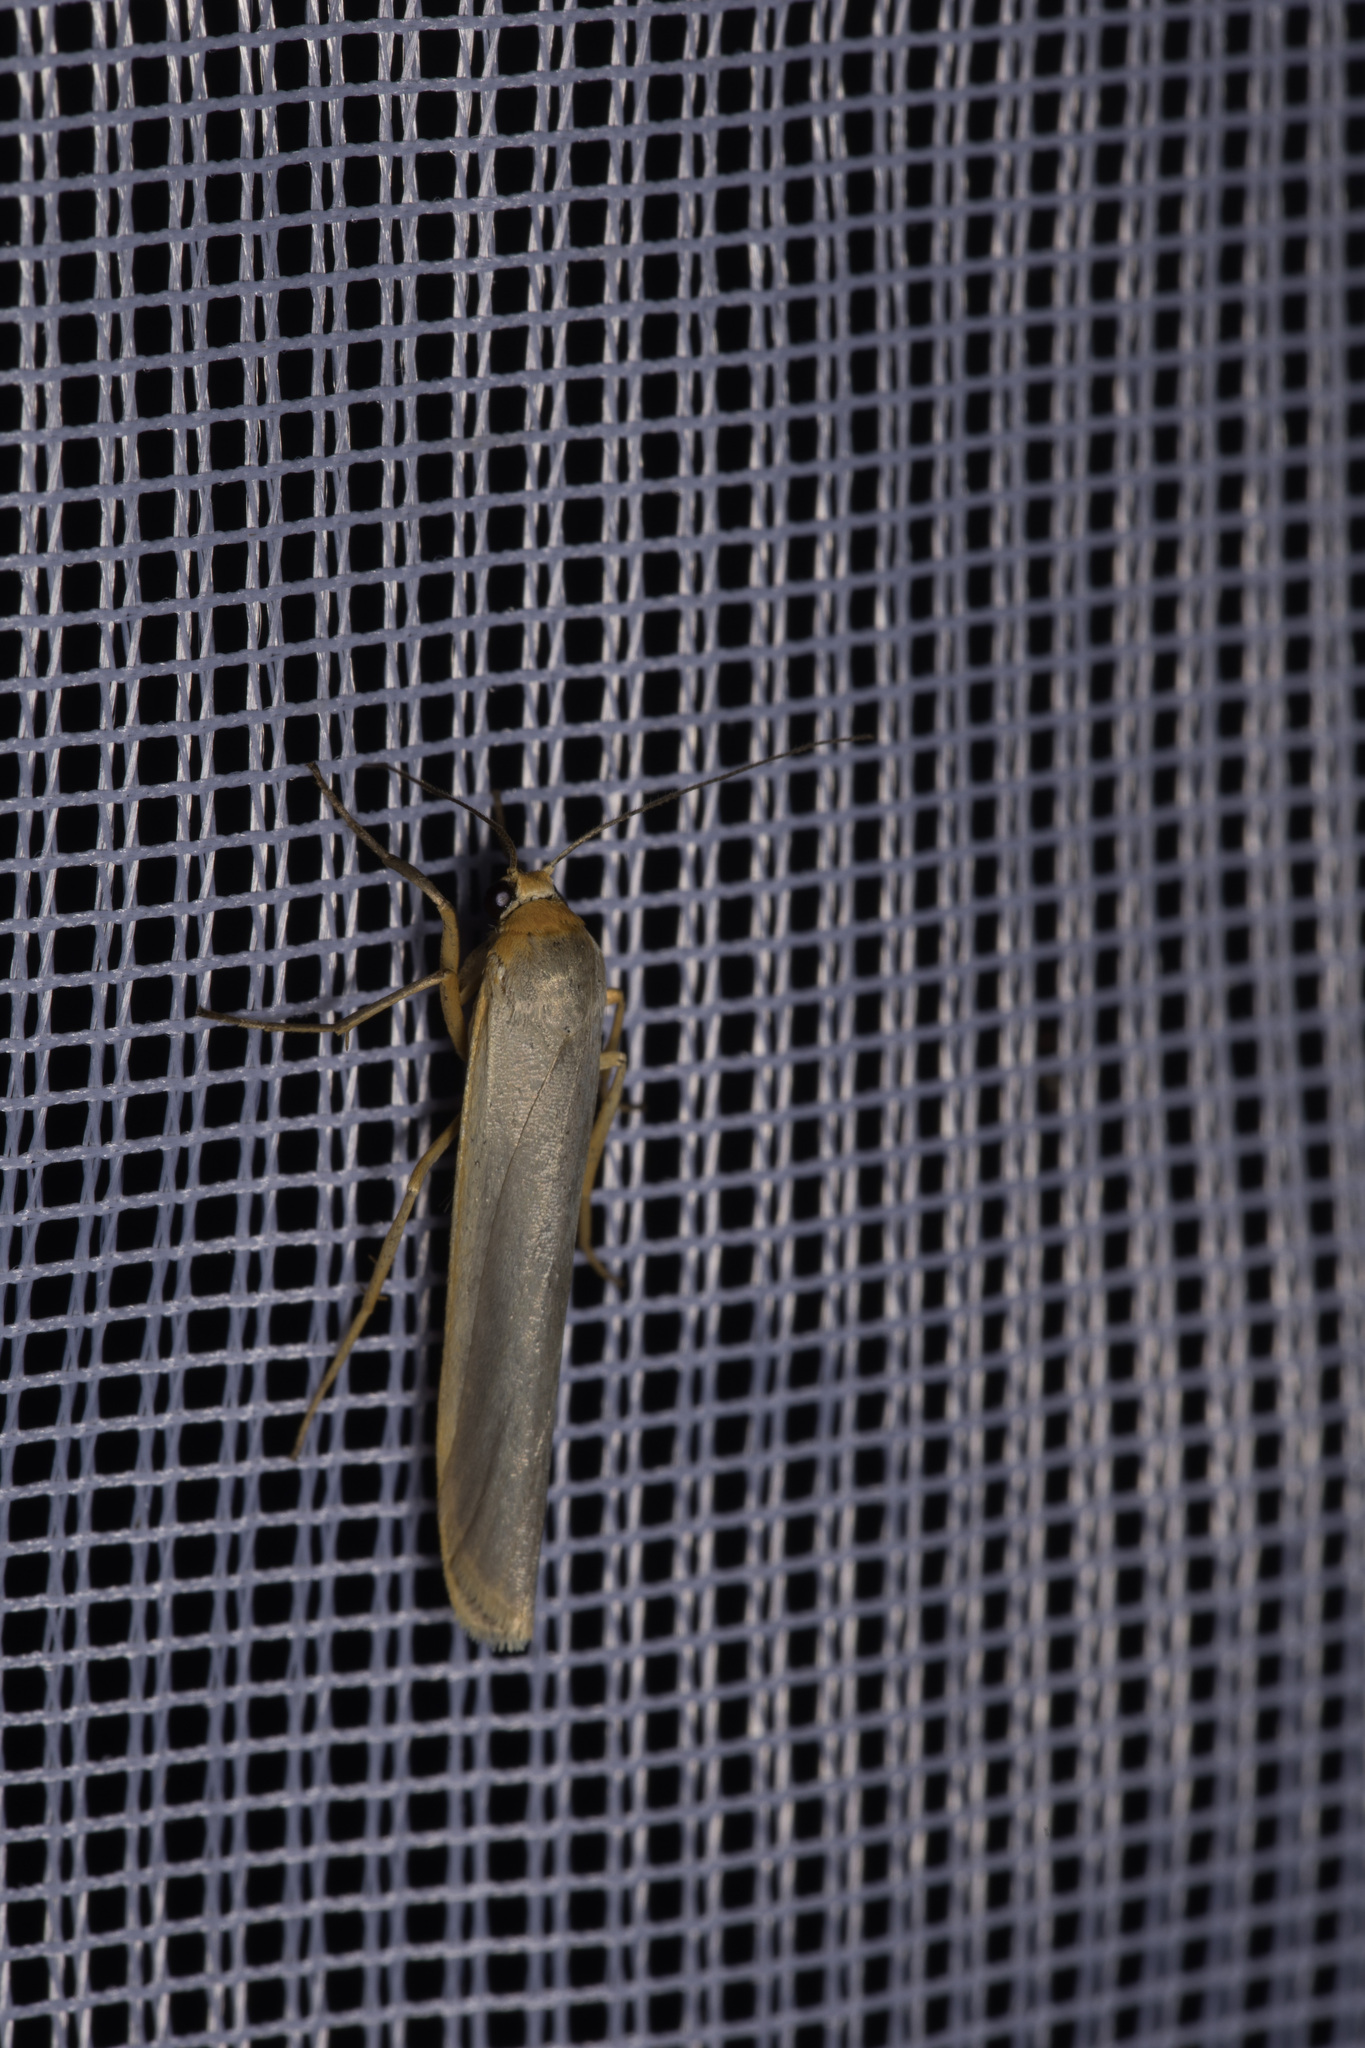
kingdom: Animalia
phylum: Arthropoda
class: Insecta
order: Lepidoptera
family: Erebidae
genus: Manulea
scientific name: Manulea complana
